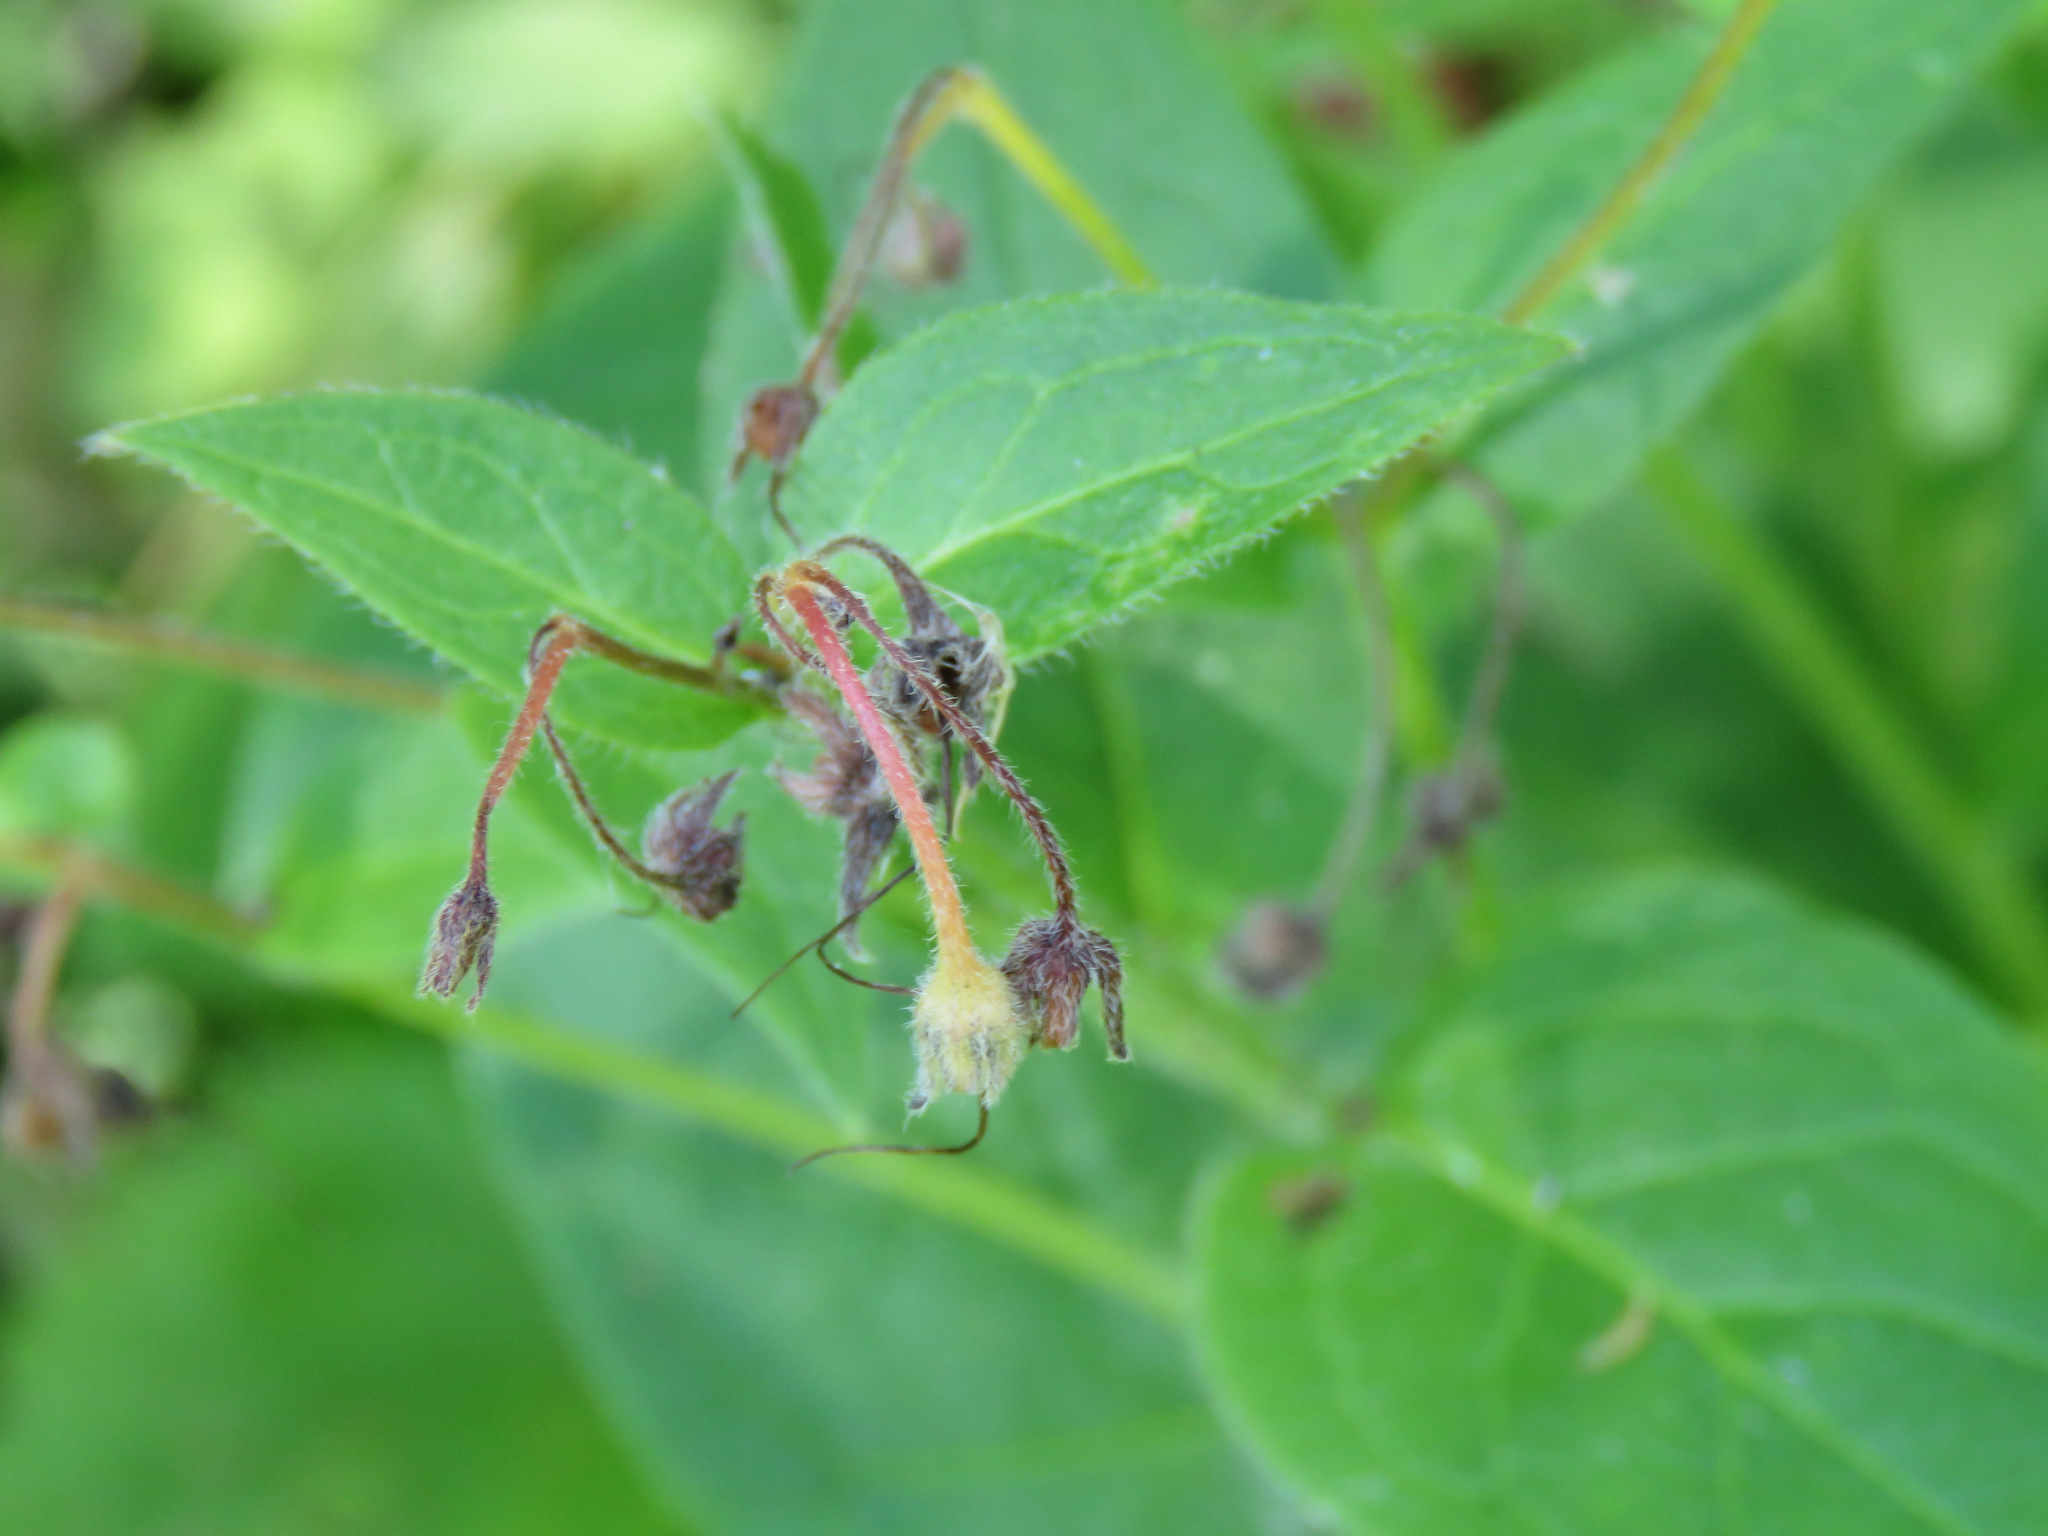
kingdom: Plantae
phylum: Tracheophyta
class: Magnoliopsida
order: Boraginales
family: Boraginaceae
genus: Mertensia
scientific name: Mertensia paniculata
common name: Panicled bluebells
